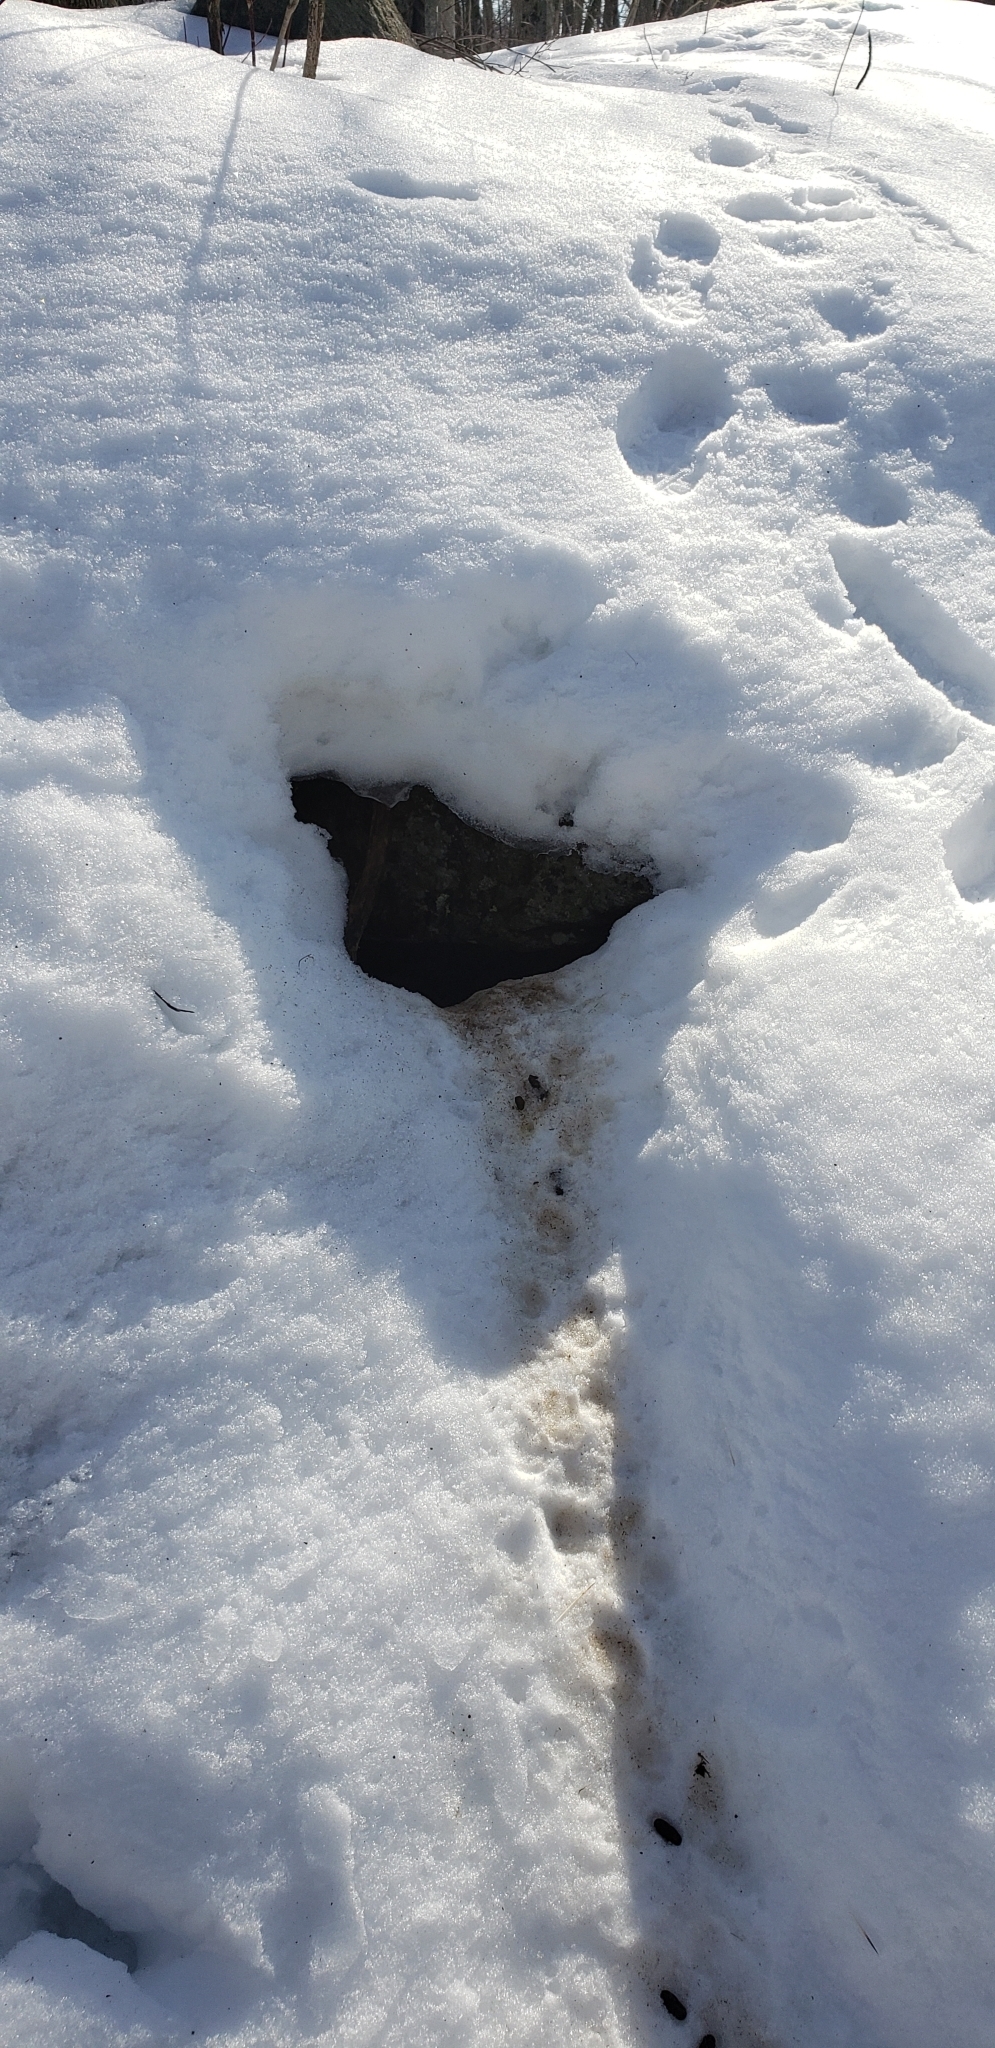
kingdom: Animalia
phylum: Chordata
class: Mammalia
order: Rodentia
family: Erethizontidae
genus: Erethizon
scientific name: Erethizon dorsatus
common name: North american porcupine
